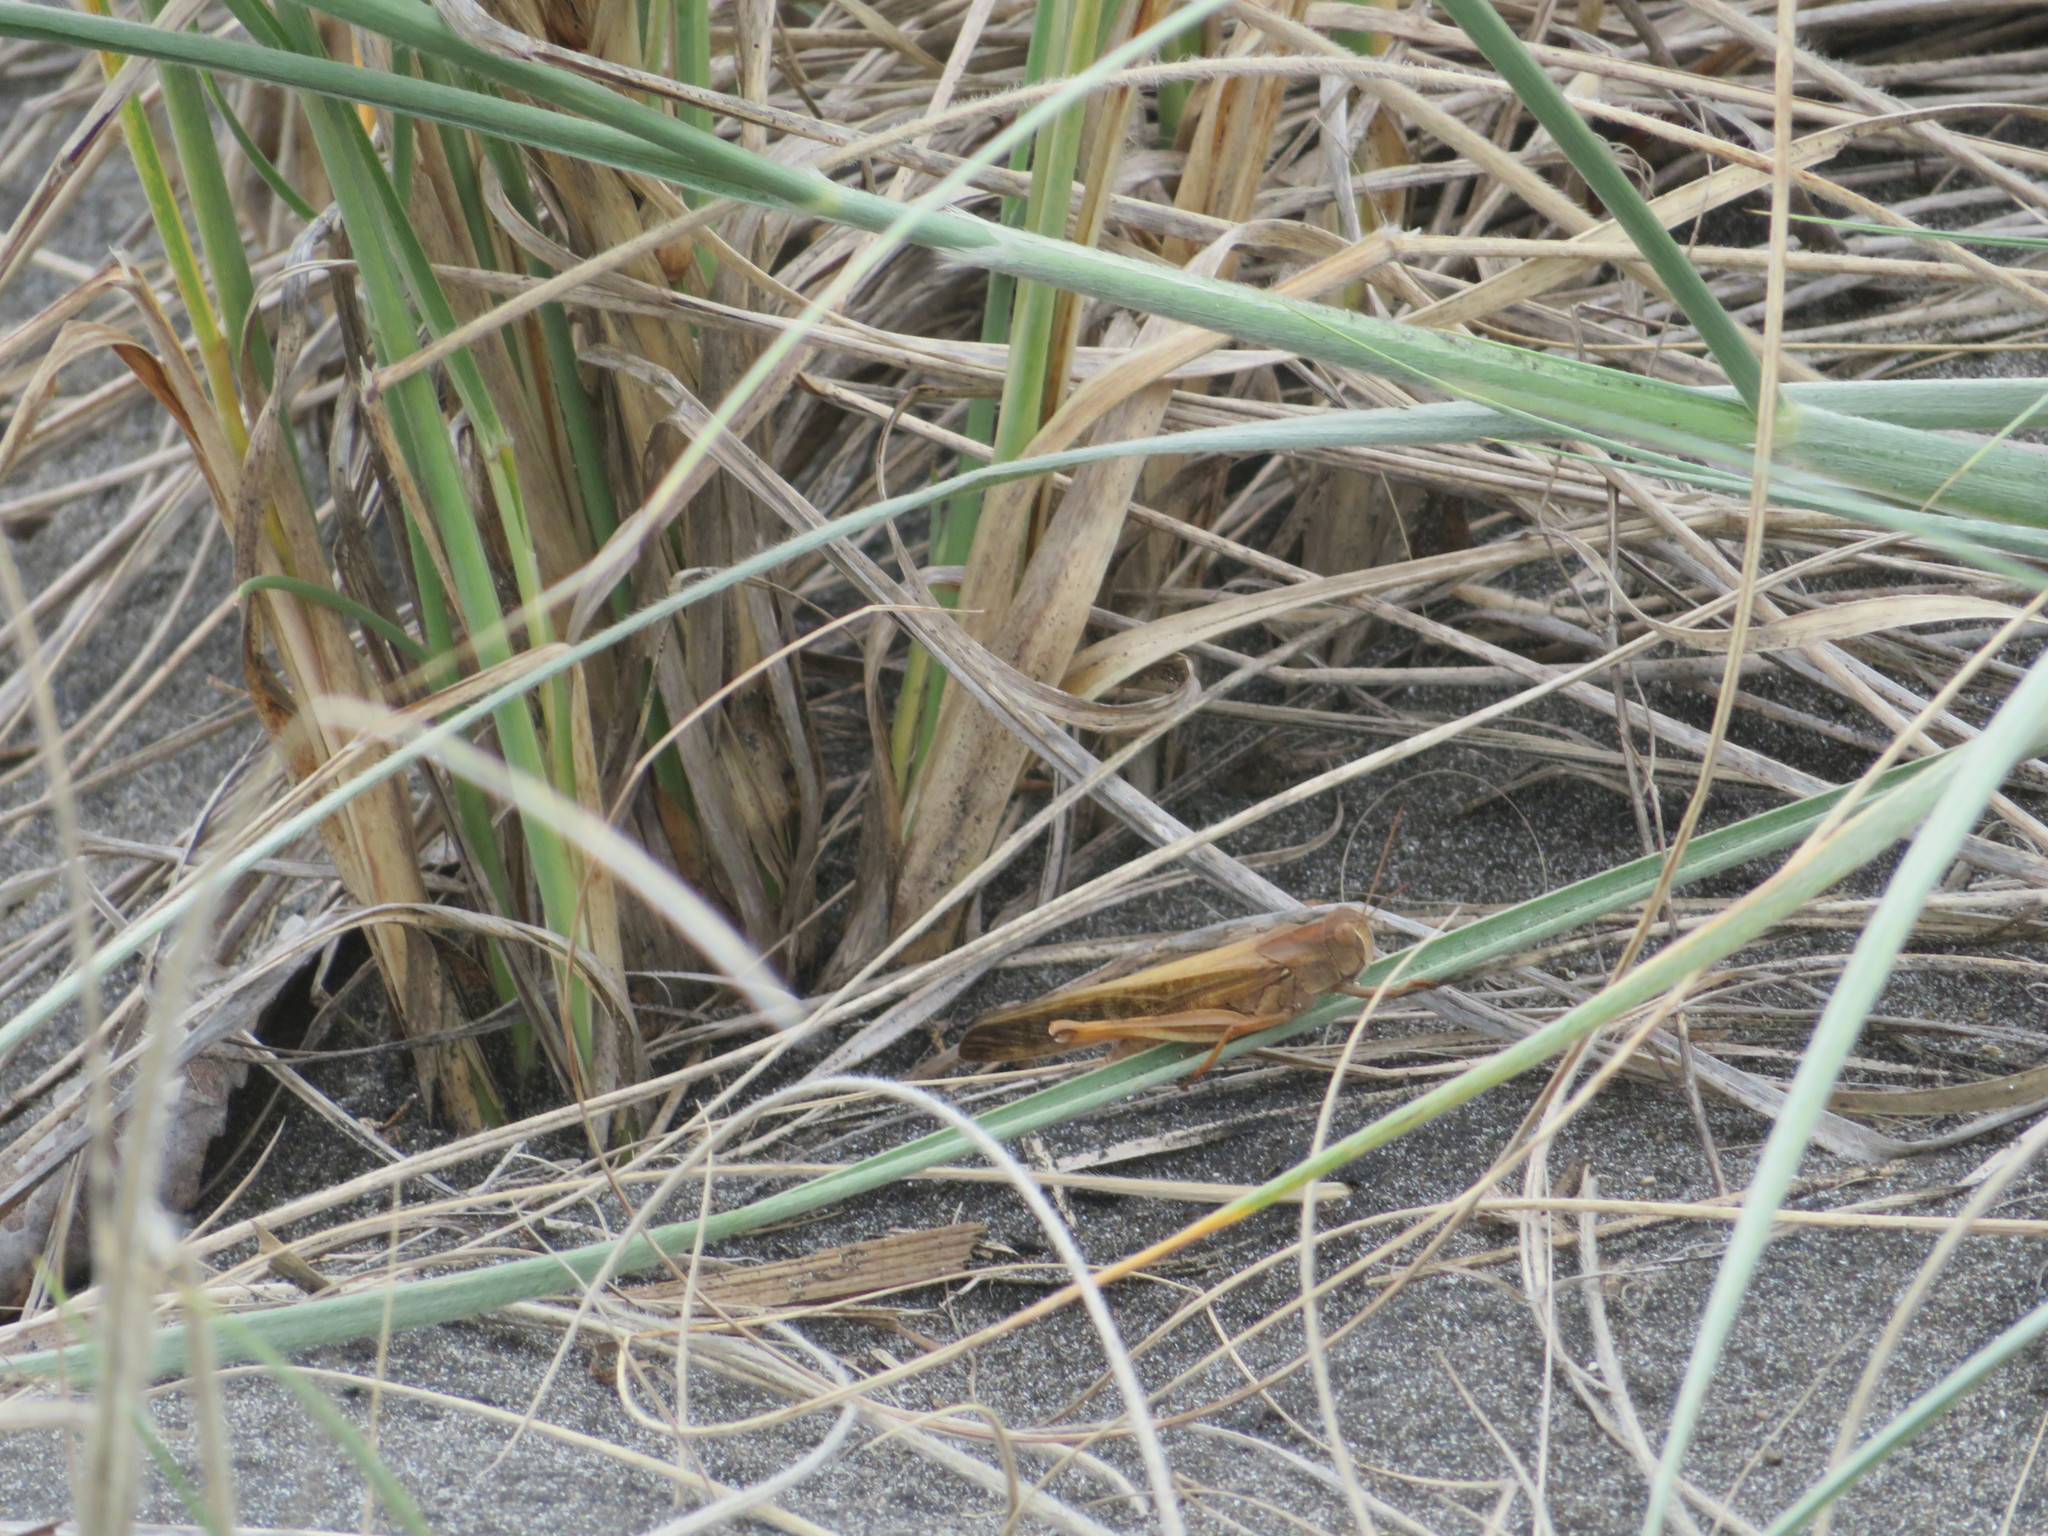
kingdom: Animalia
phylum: Arthropoda
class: Insecta
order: Orthoptera
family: Acrididae
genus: Locusta
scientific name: Locusta migratoria
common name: Migratory locust
